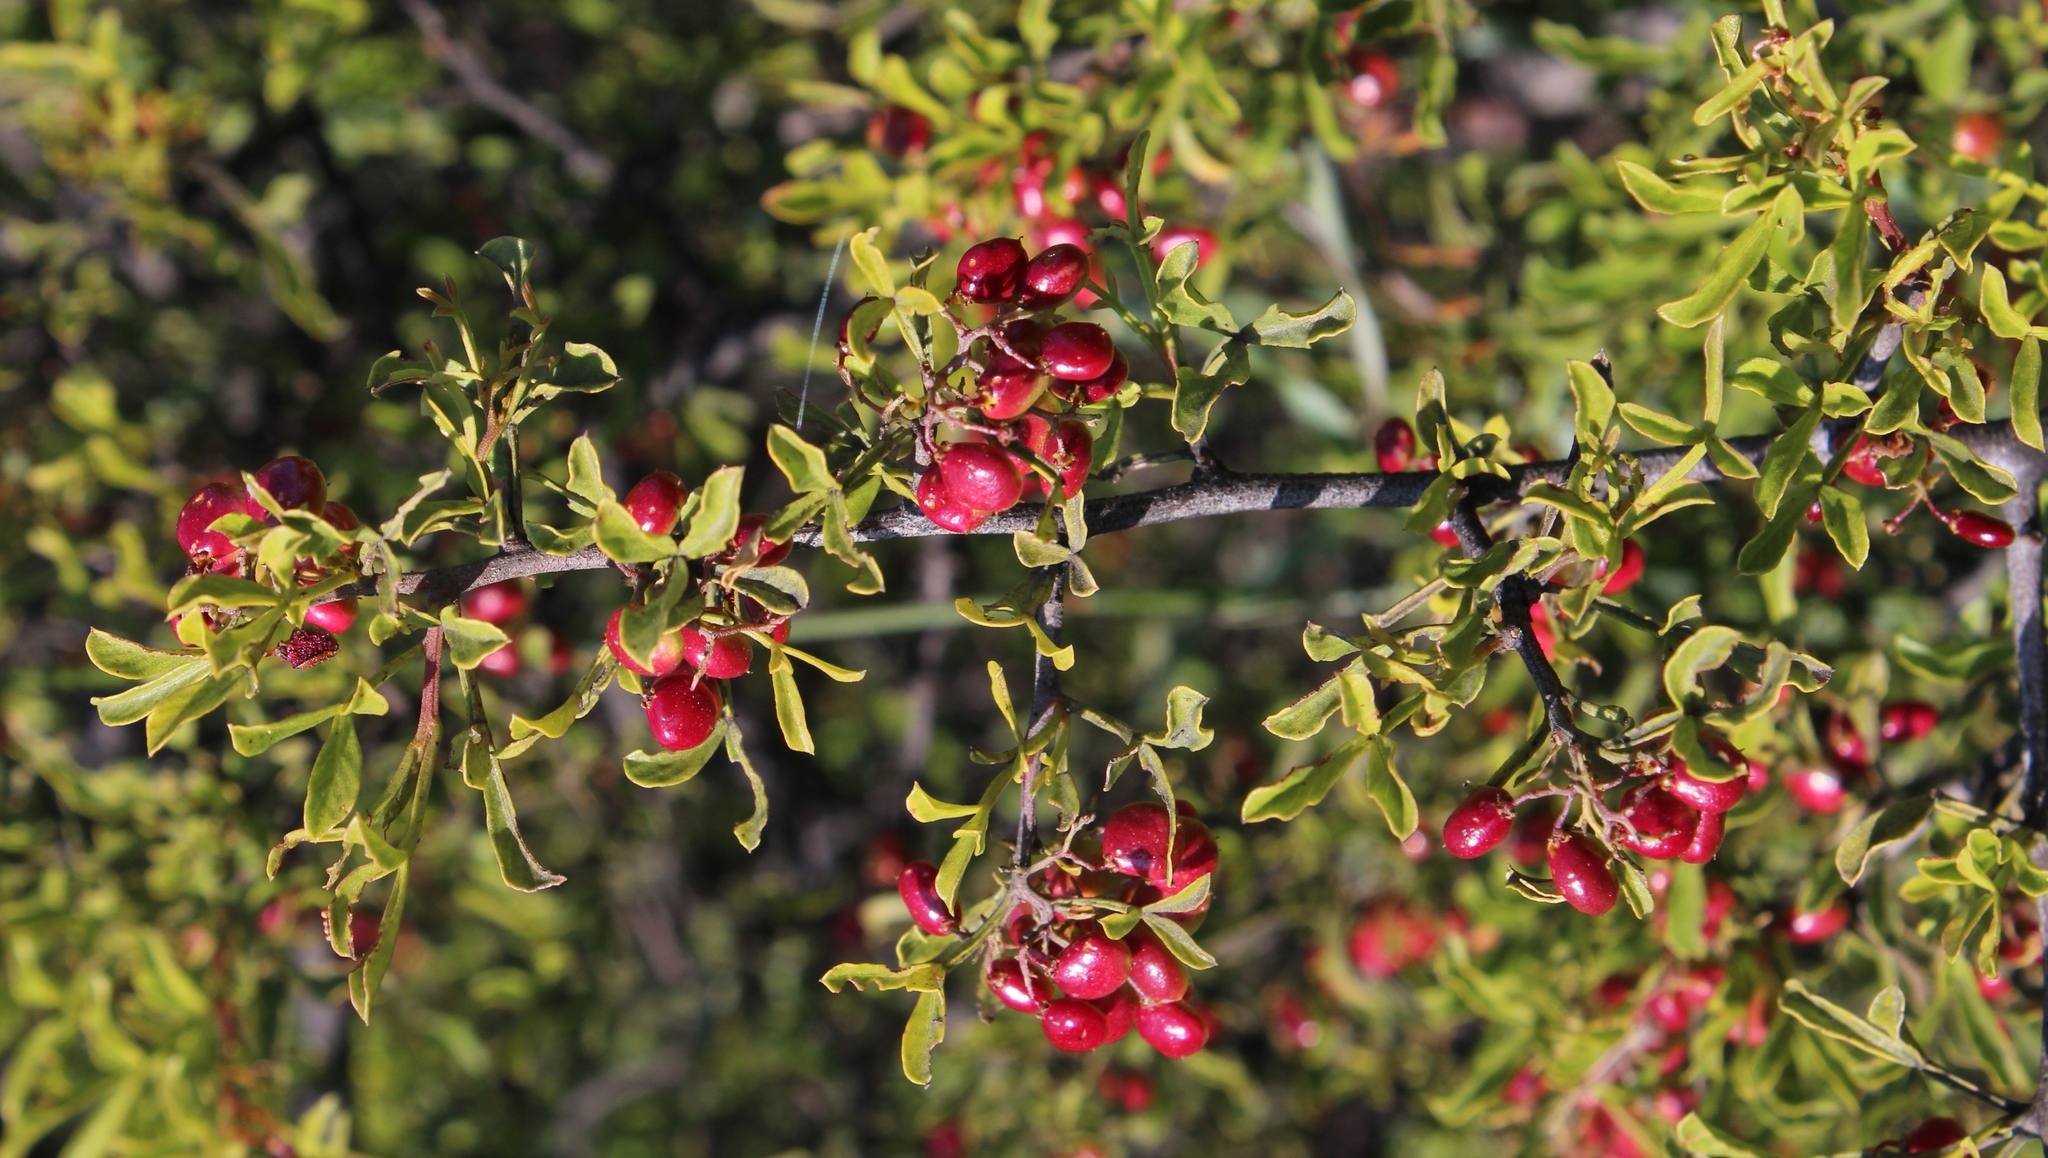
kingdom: Plantae
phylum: Tracheophyta
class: Magnoliopsida
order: Sapindales
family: Anacardiaceae
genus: Searsia
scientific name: Searsia undulata
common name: Namaqua kunibush
